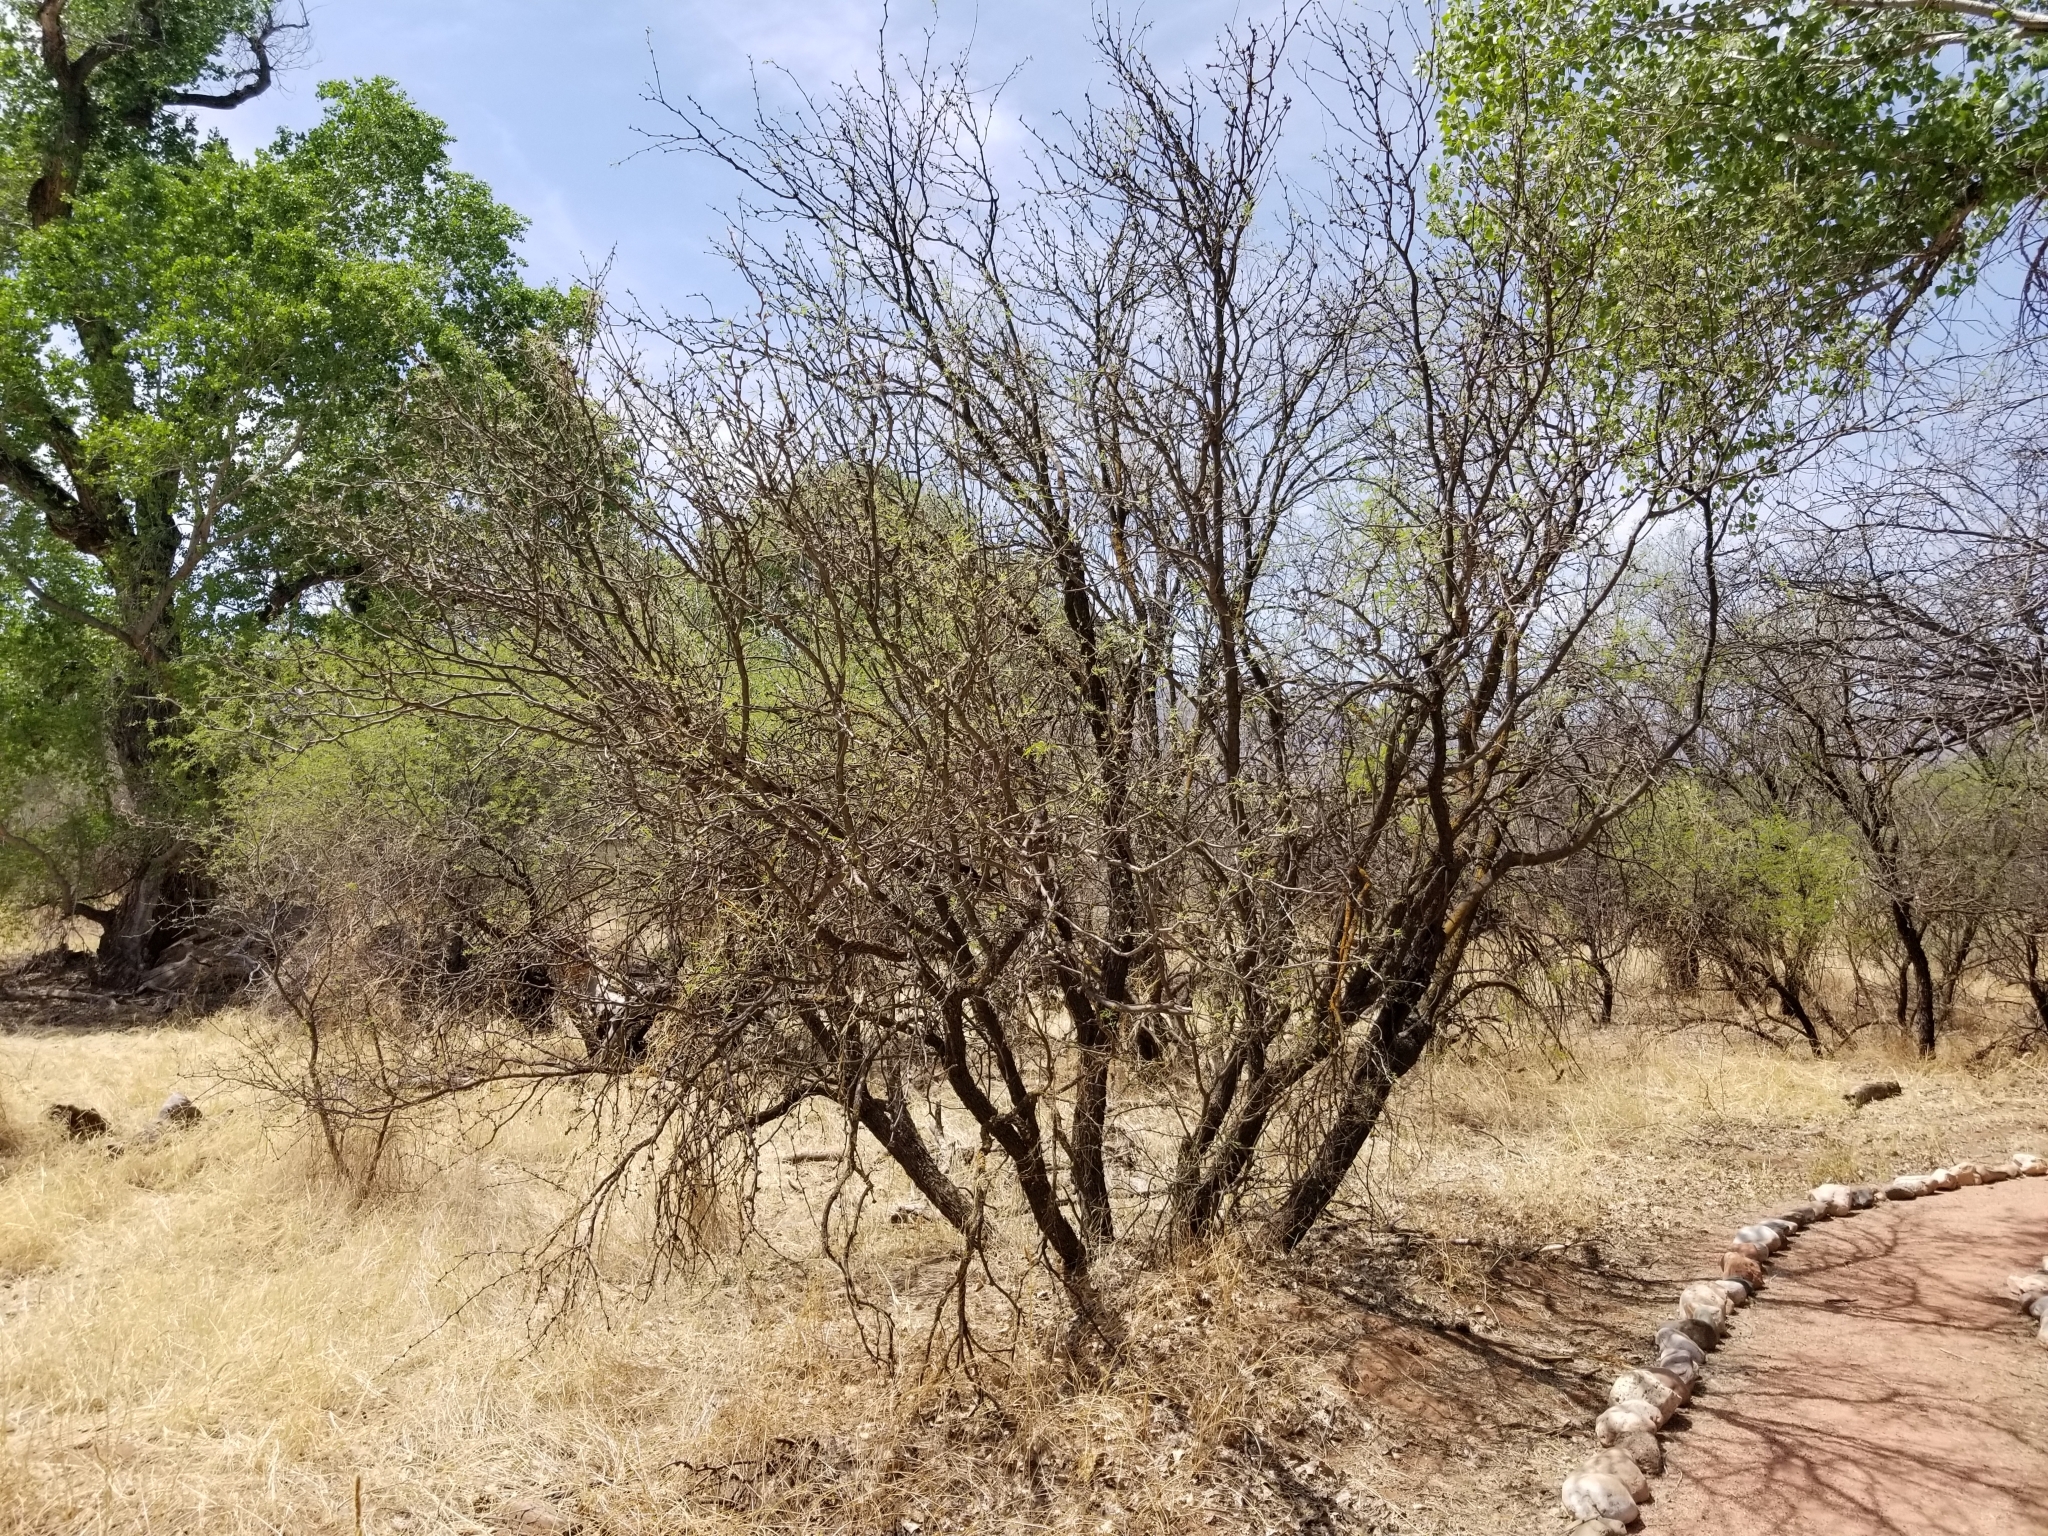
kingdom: Plantae
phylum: Tracheophyta
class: Magnoliopsida
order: Fabales
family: Fabaceae
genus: Prosopis
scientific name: Prosopis velutina
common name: Velvet mesquite
